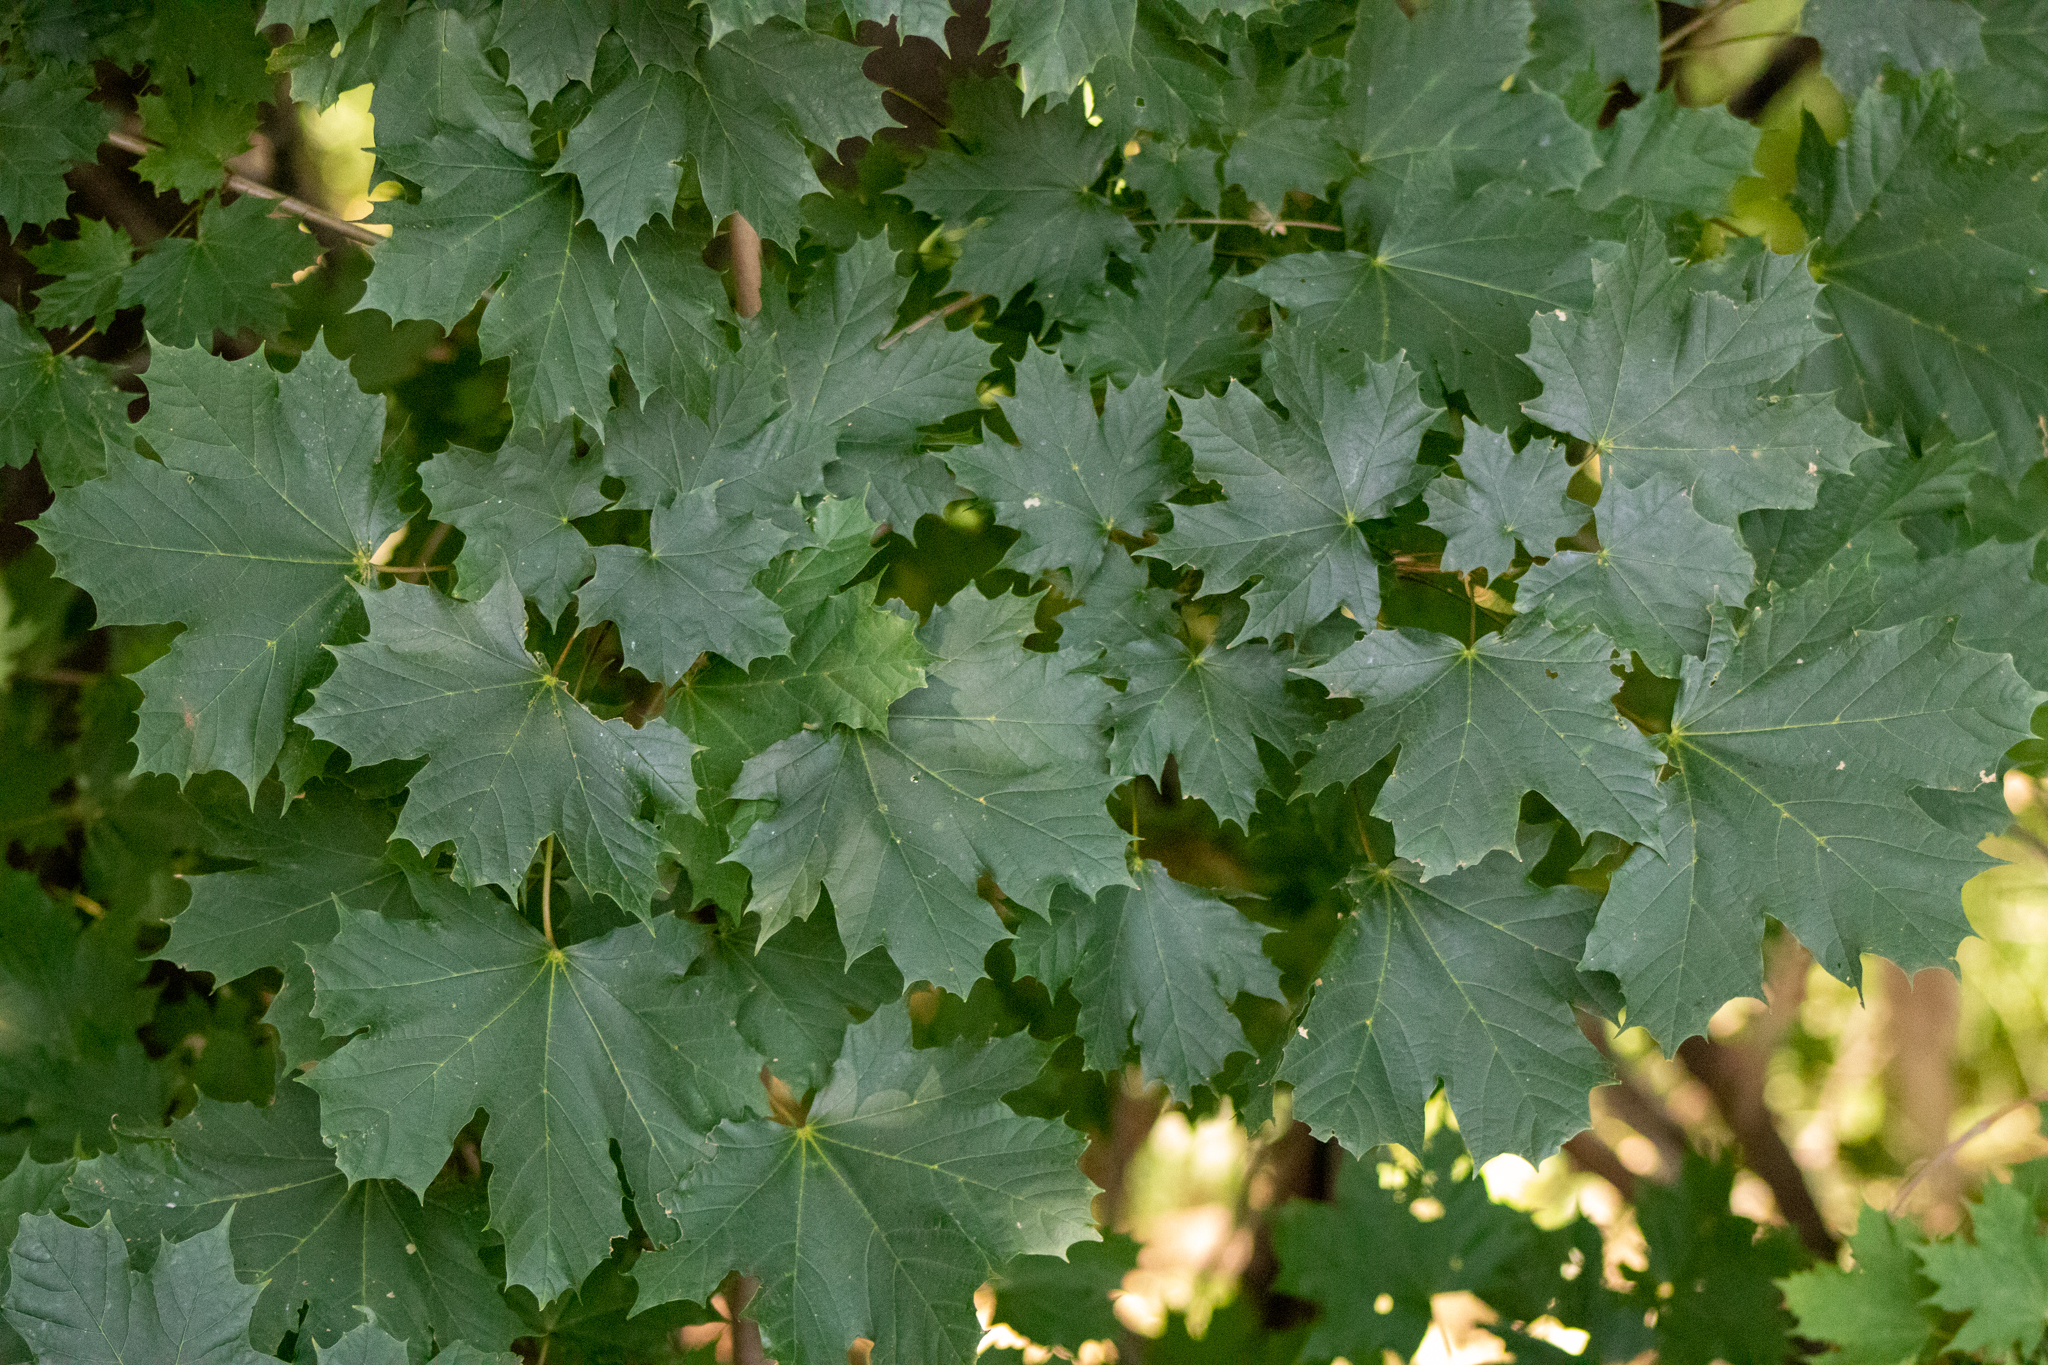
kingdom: Plantae
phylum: Tracheophyta
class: Magnoliopsida
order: Sapindales
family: Sapindaceae
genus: Acer
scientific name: Acer platanoides
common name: Norway maple
